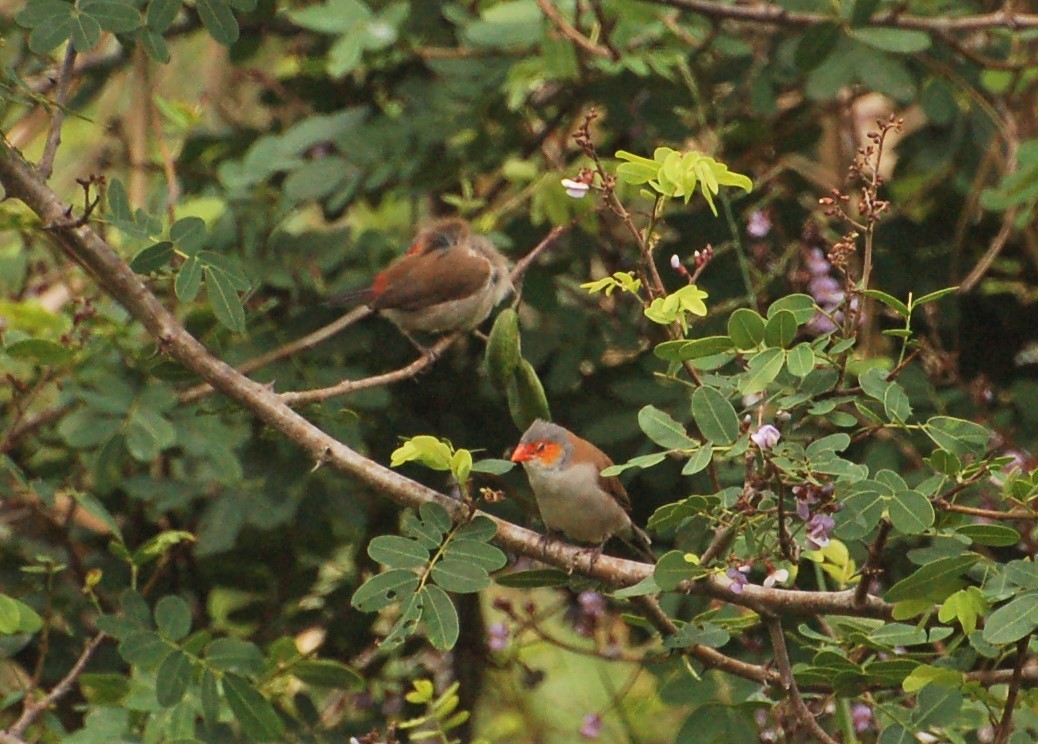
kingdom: Animalia
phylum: Chordata
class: Aves
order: Passeriformes
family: Estrildidae
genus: Estrilda
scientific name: Estrilda melpoda
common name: Orange-cheeked waxbill
